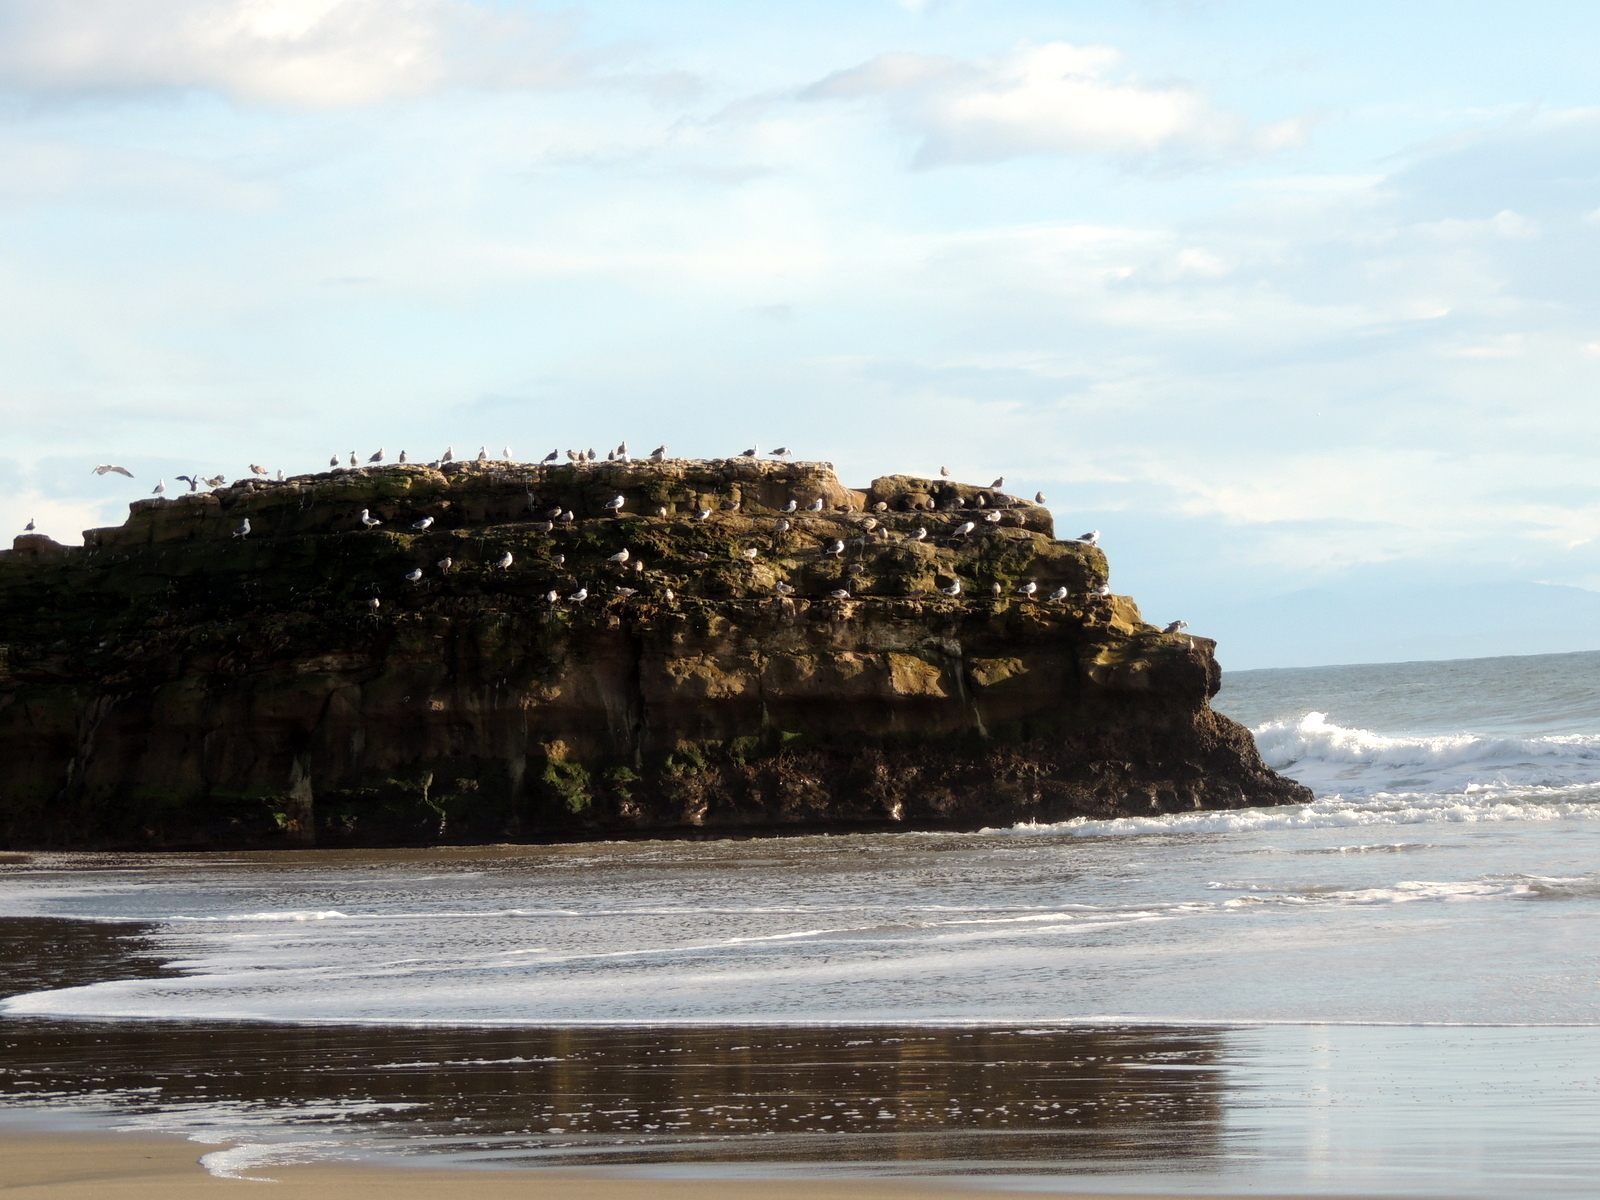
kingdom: Animalia
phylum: Chordata
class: Aves
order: Charadriiformes
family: Laridae
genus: Larus
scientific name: Larus
